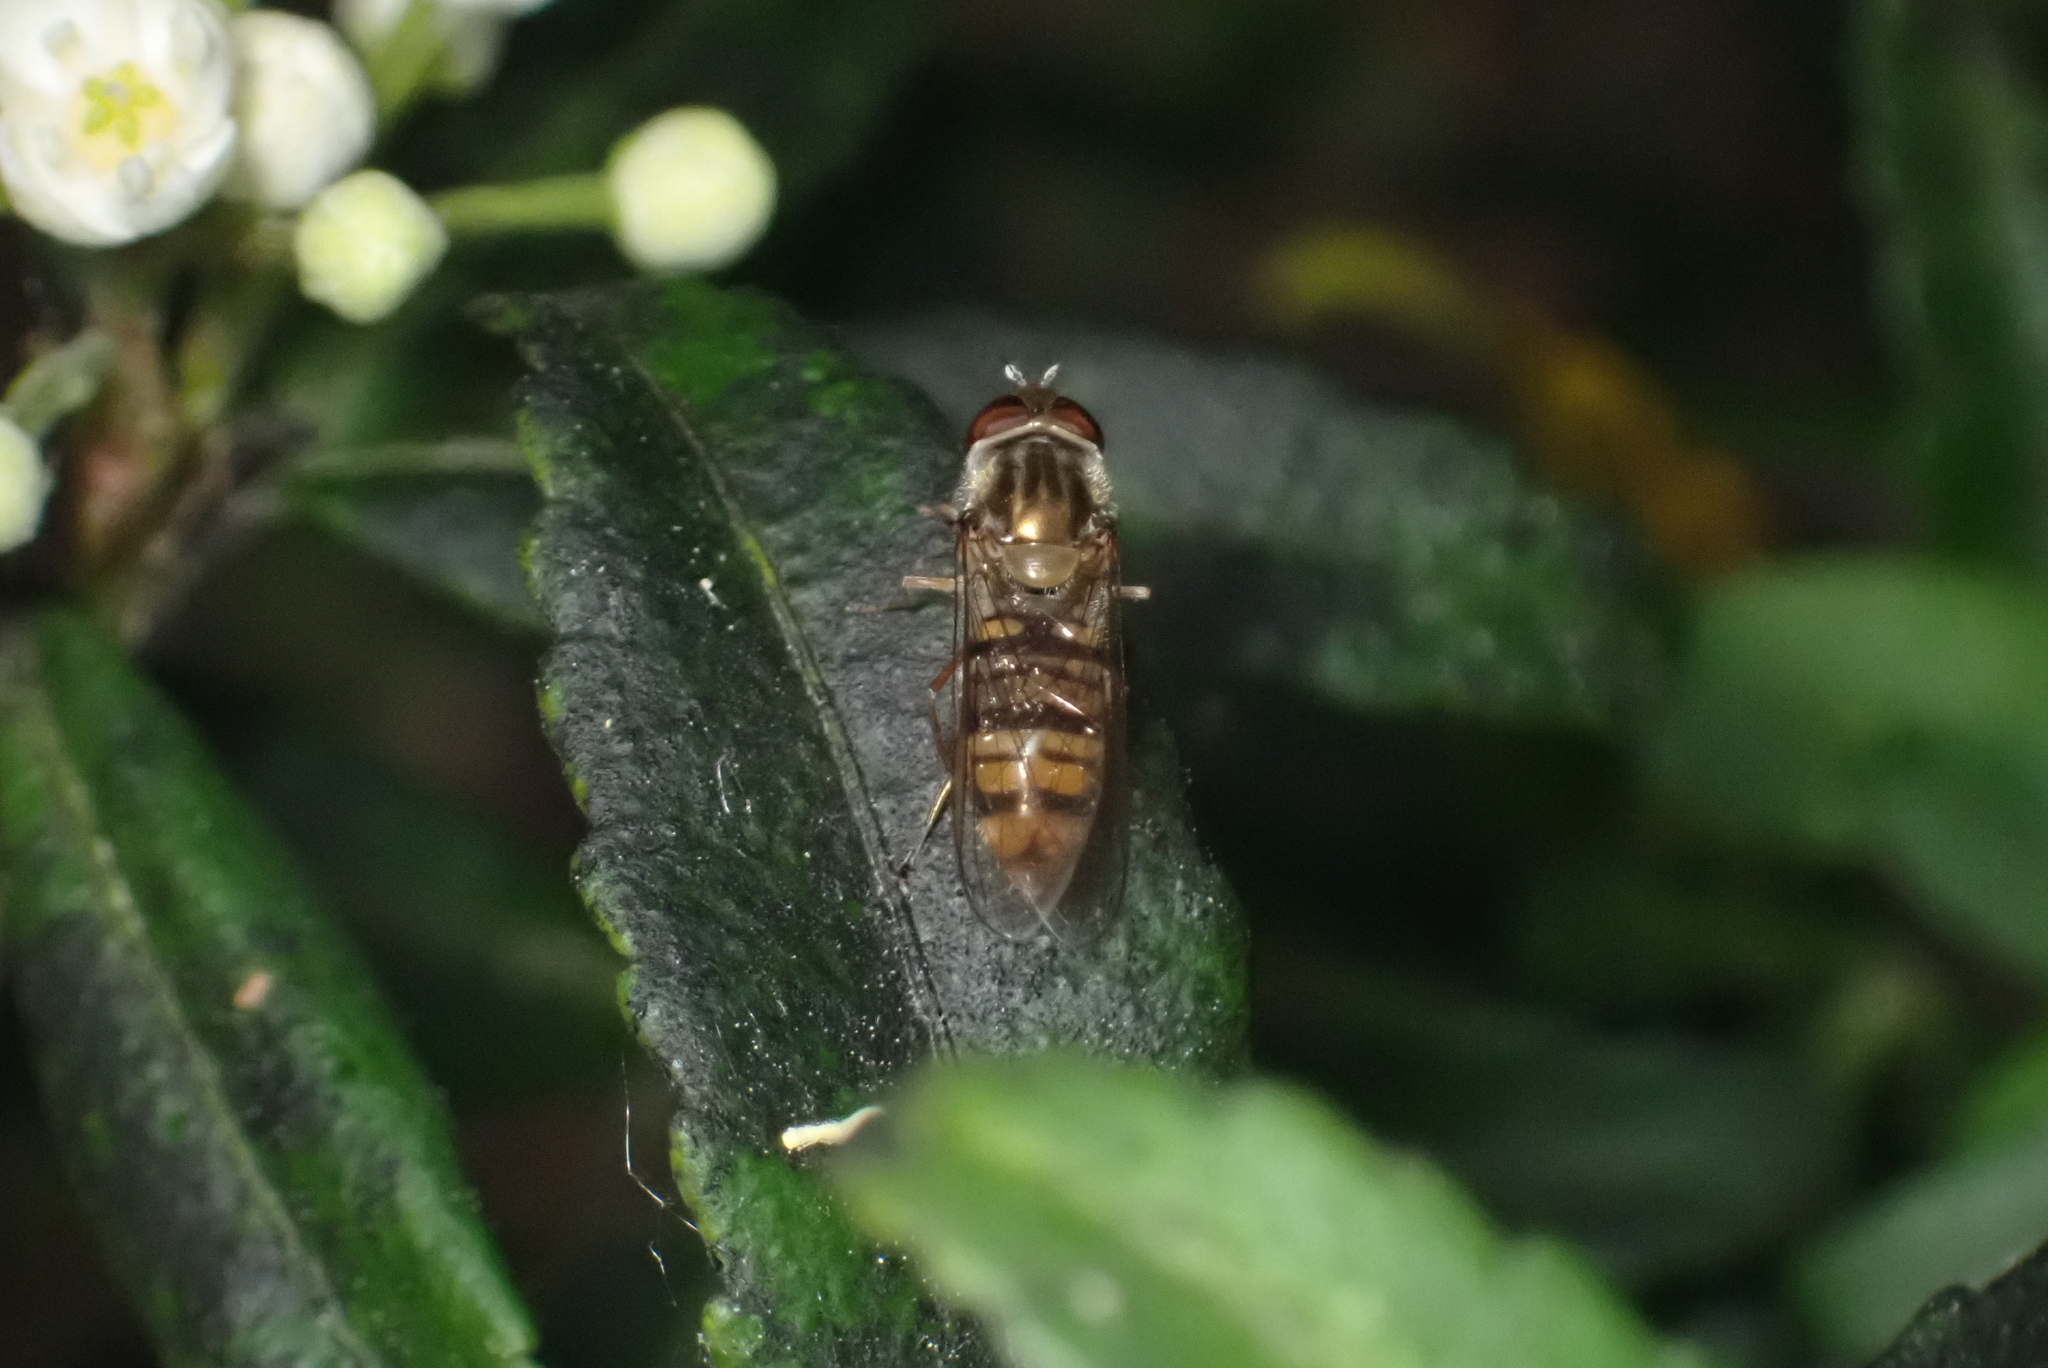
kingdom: Animalia
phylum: Arthropoda
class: Insecta
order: Diptera
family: Syrphidae
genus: Episyrphus
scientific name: Episyrphus balteatus
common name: Marmalade hoverfly
